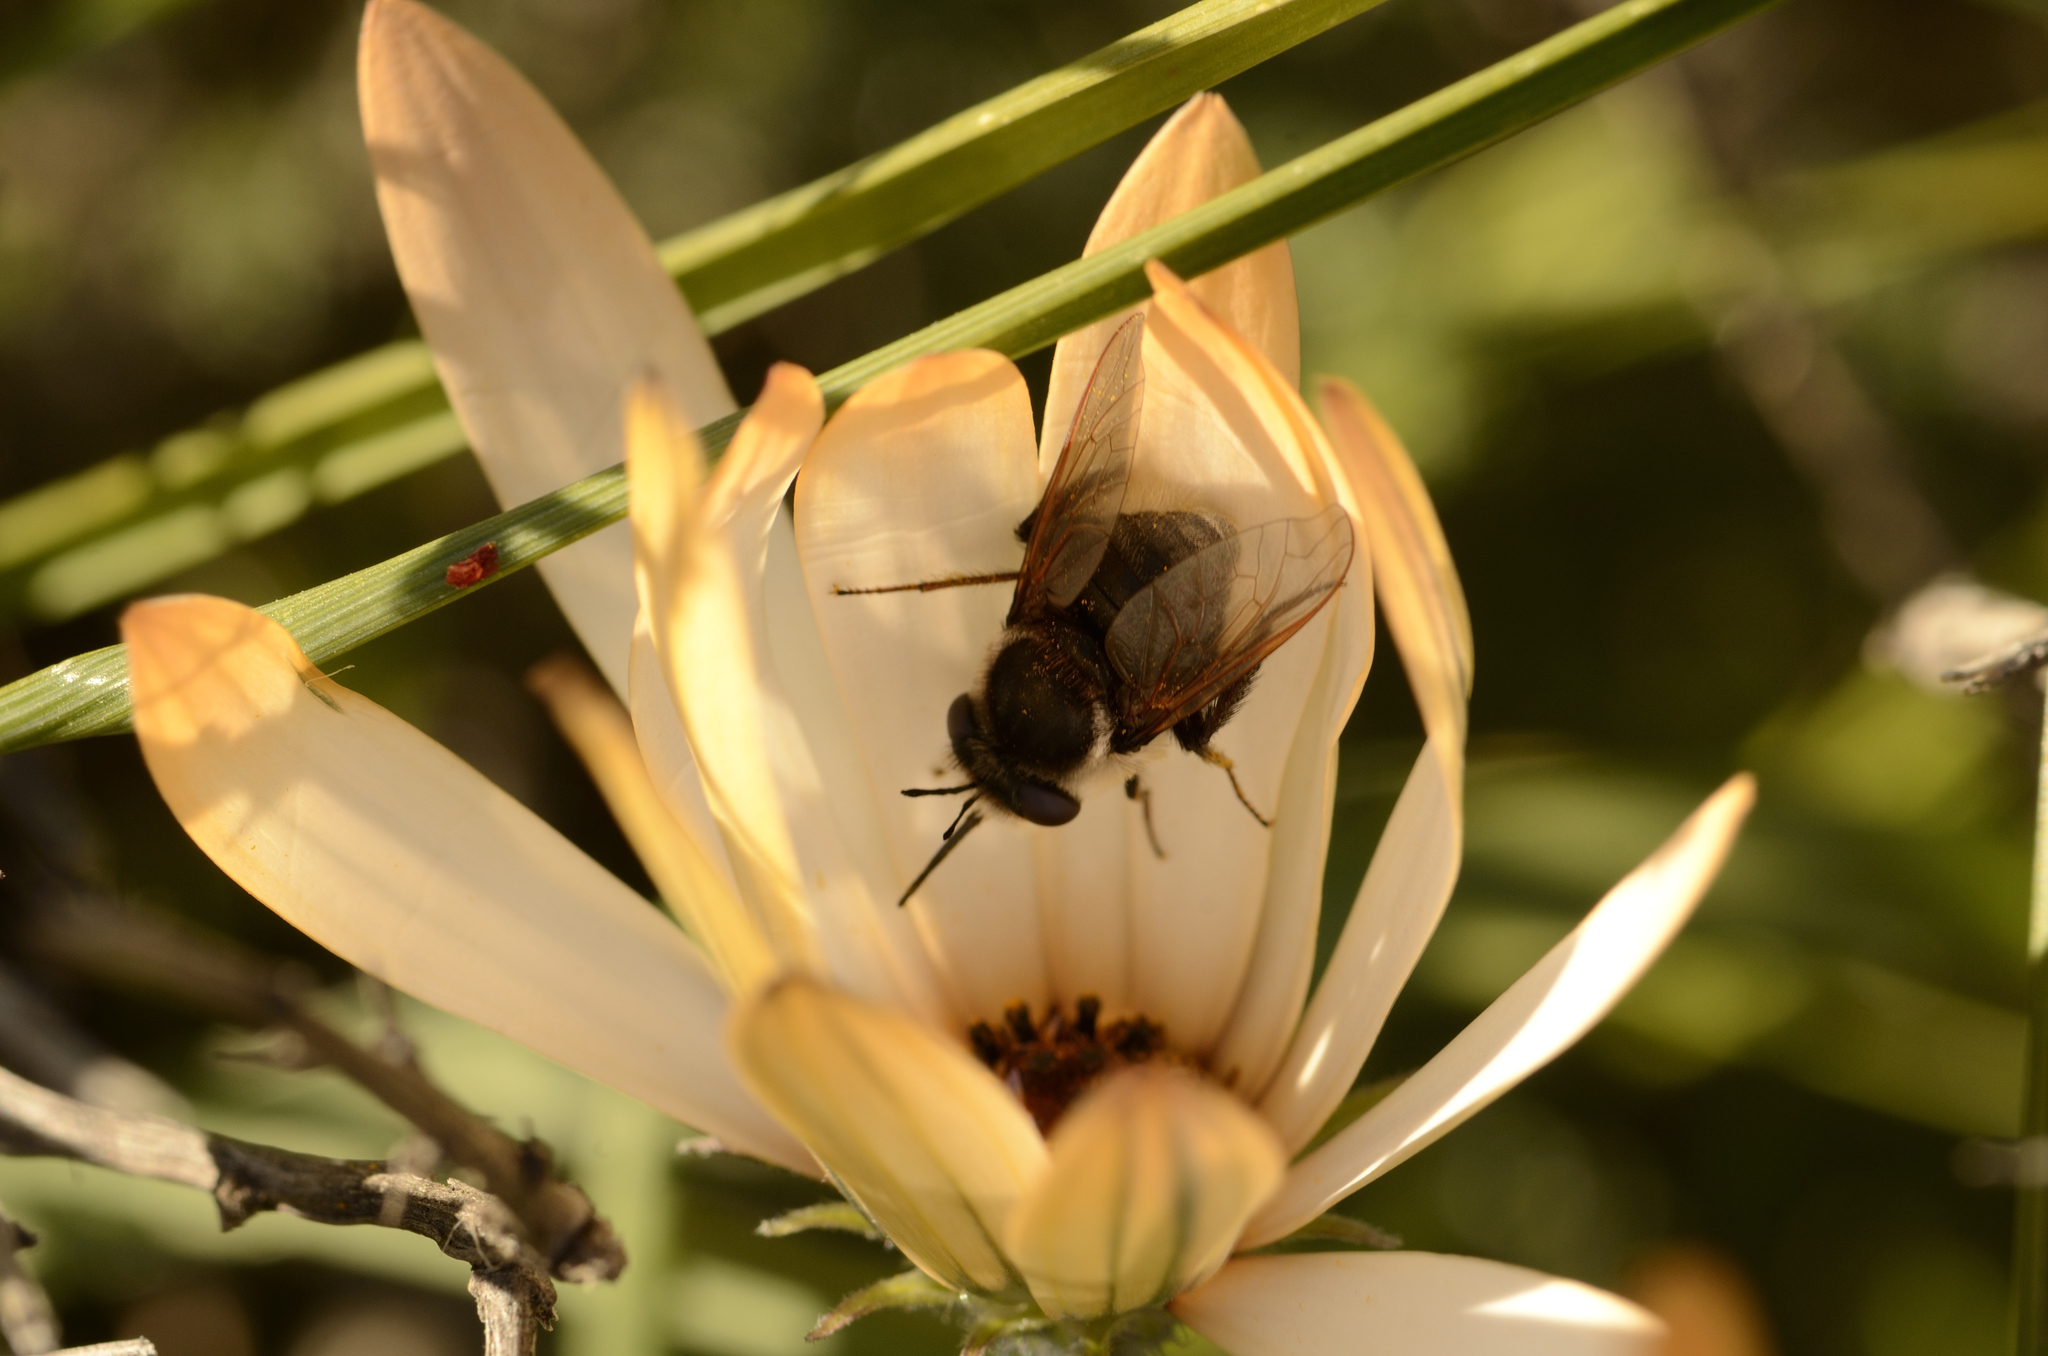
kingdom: Animalia
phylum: Arthropoda
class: Insecta
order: Diptera
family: Bombyliidae
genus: Corsomyza
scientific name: Corsomyza pennipes
